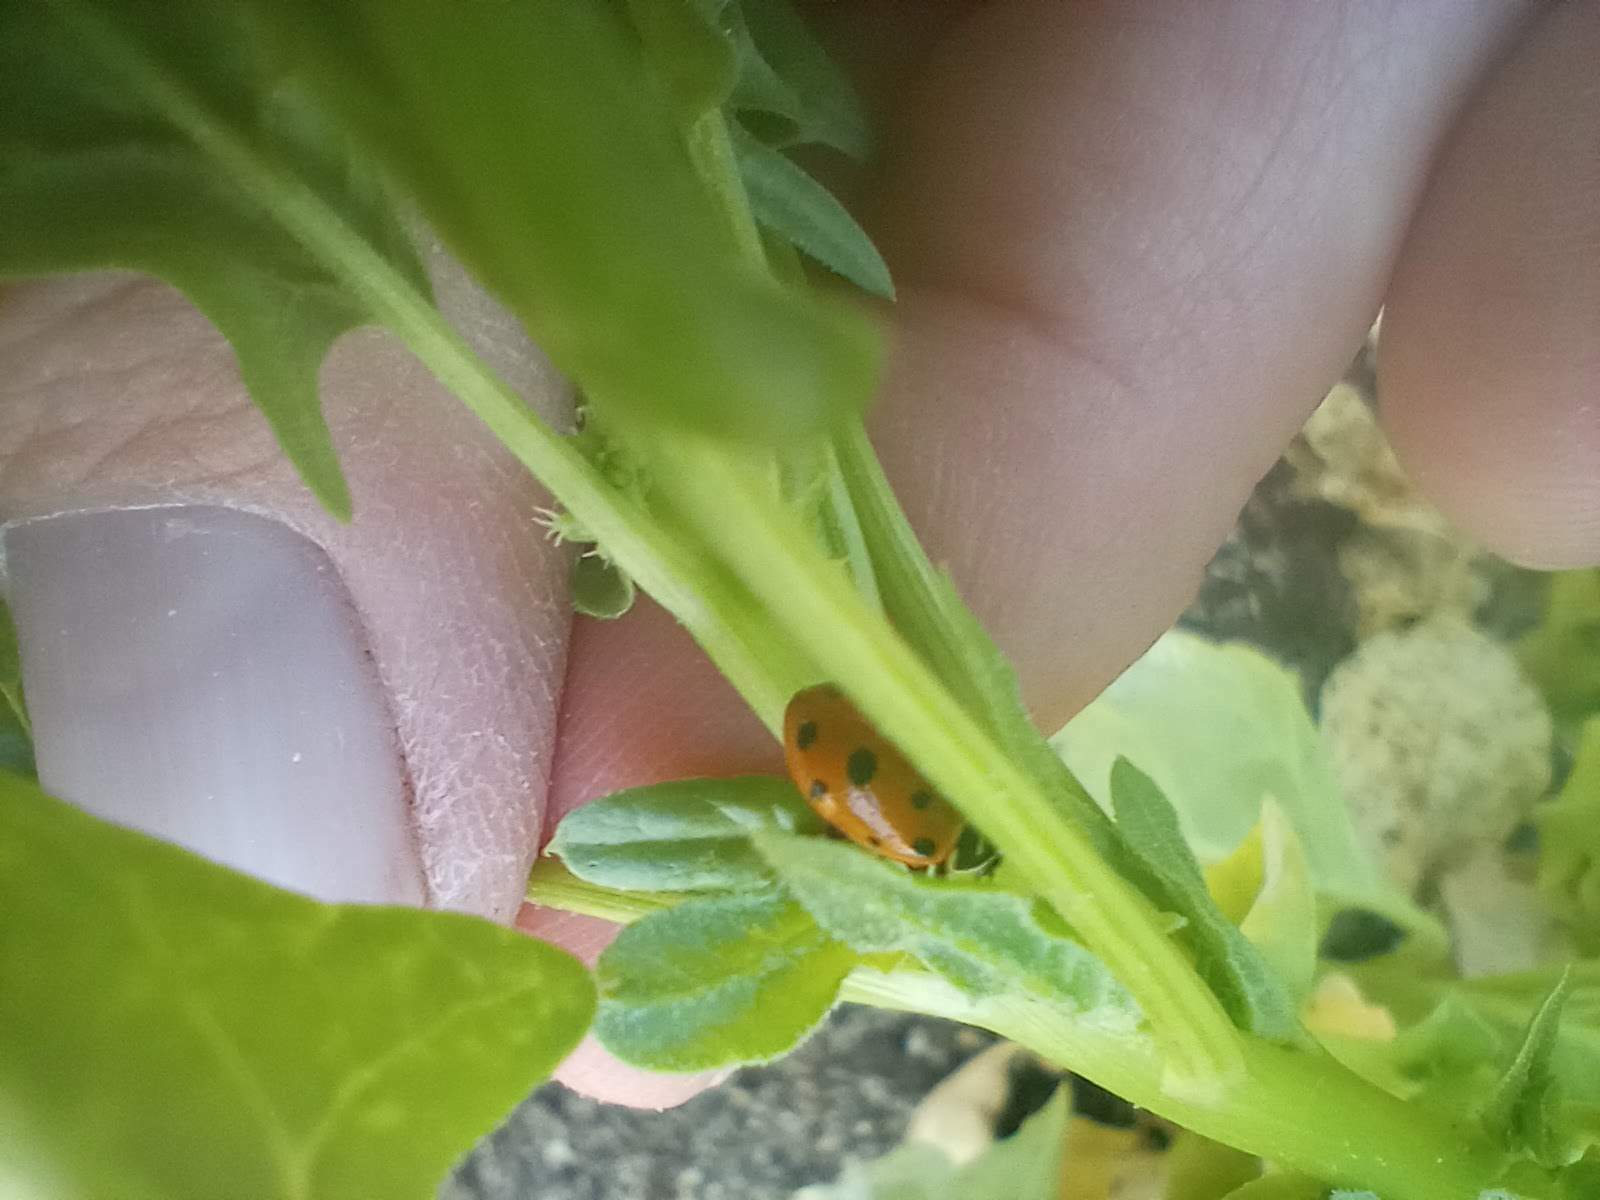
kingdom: Animalia
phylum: Arthropoda
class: Insecta
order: Coleoptera
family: Coccinellidae
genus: Hippodamia
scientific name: Hippodamia convergens
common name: Convergent lady beetle
